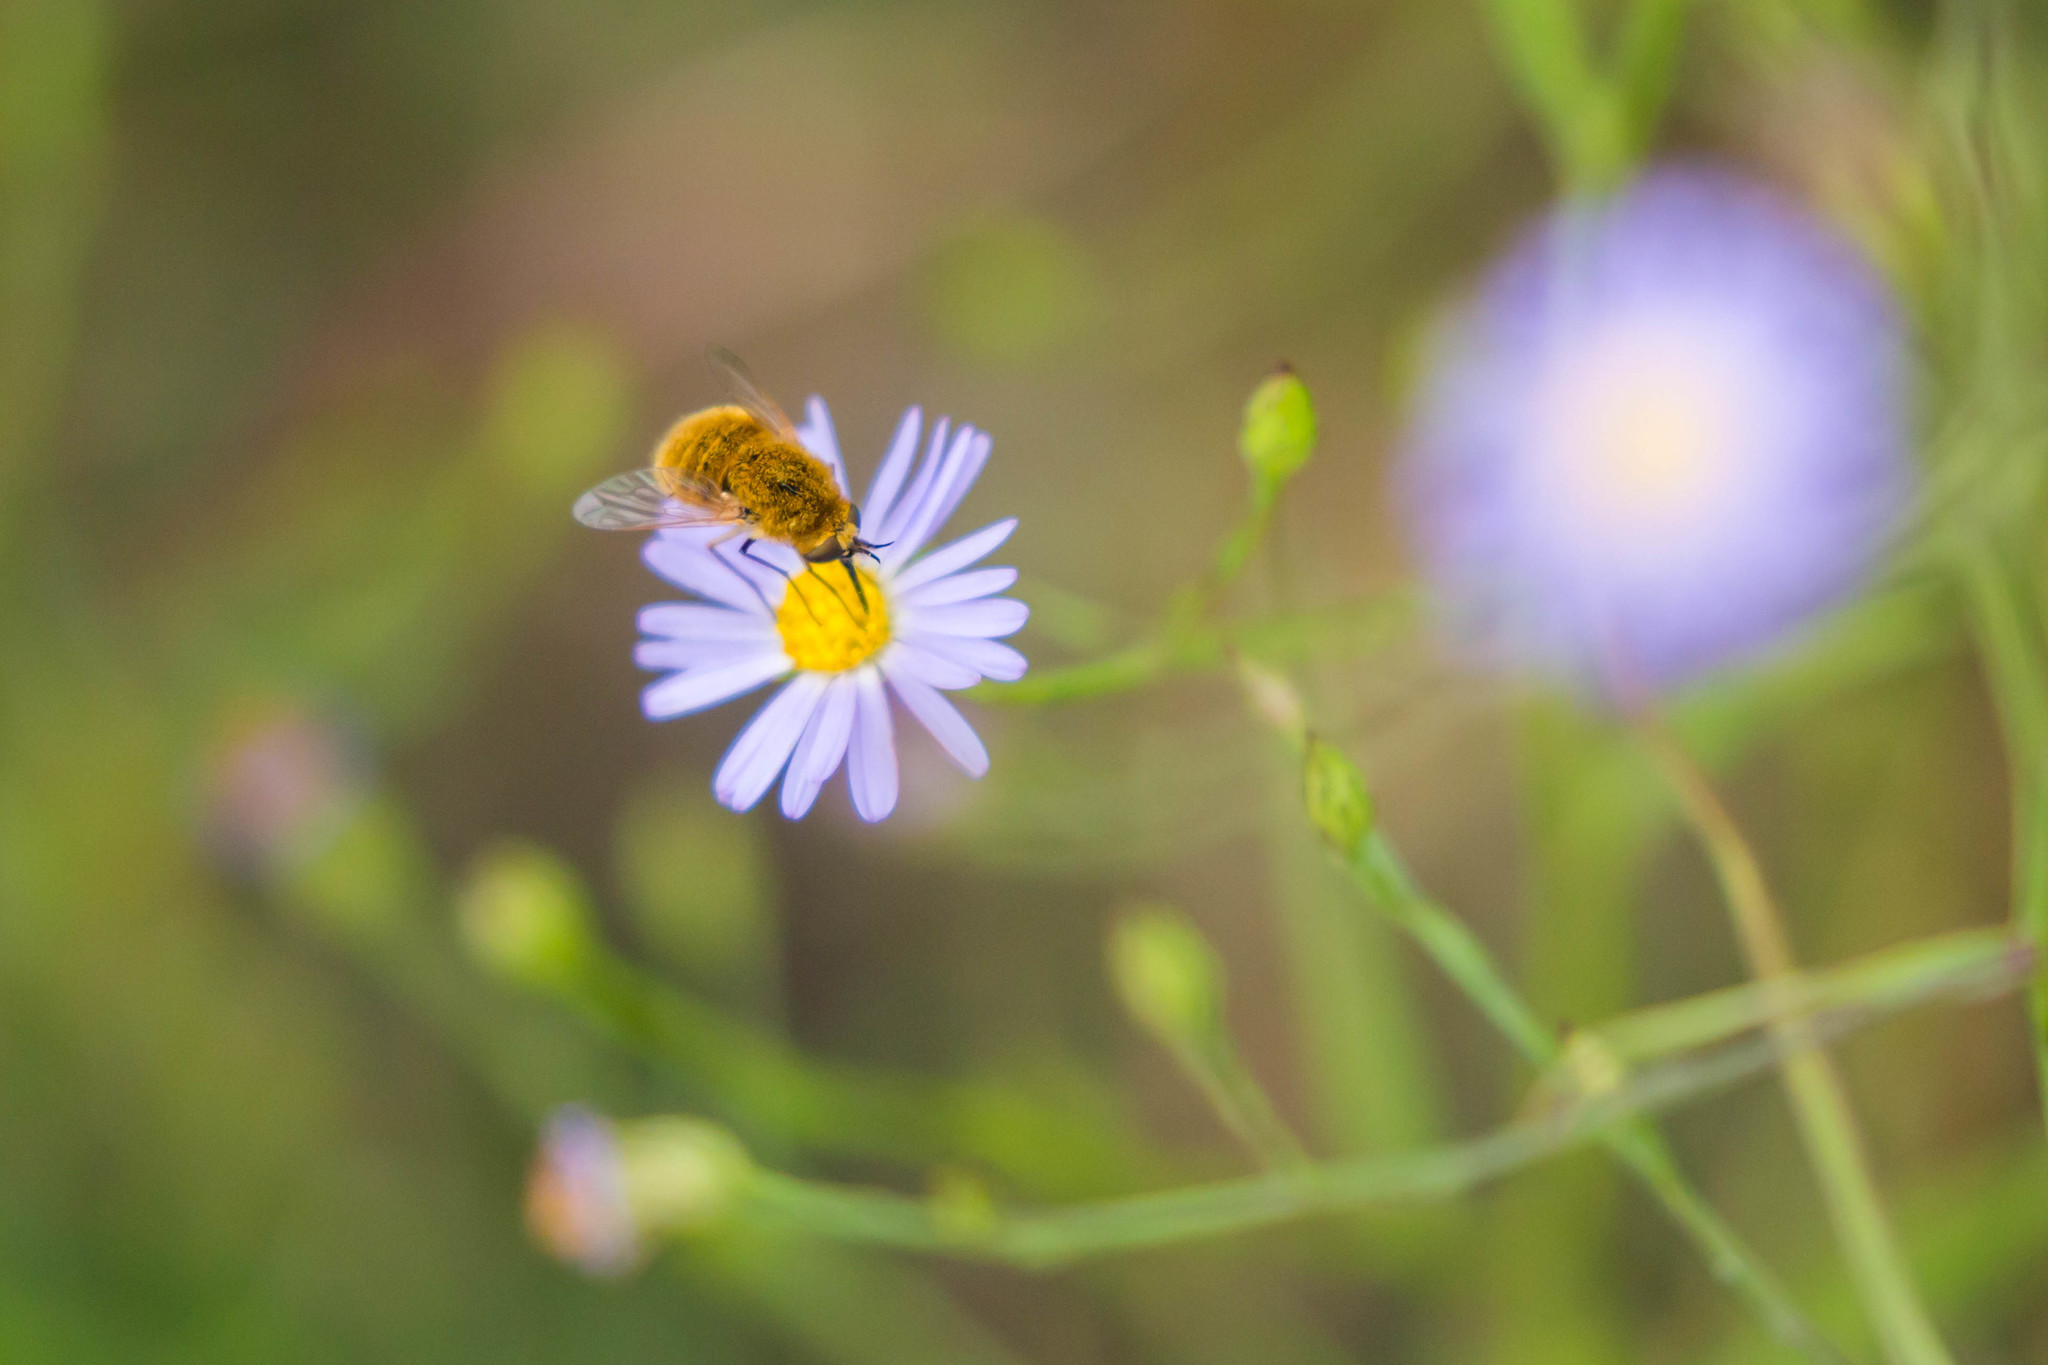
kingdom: Animalia
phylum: Arthropoda
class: Insecta
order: Diptera
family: Bombyliidae
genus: Sparnopolius
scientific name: Sparnopolius confusus
